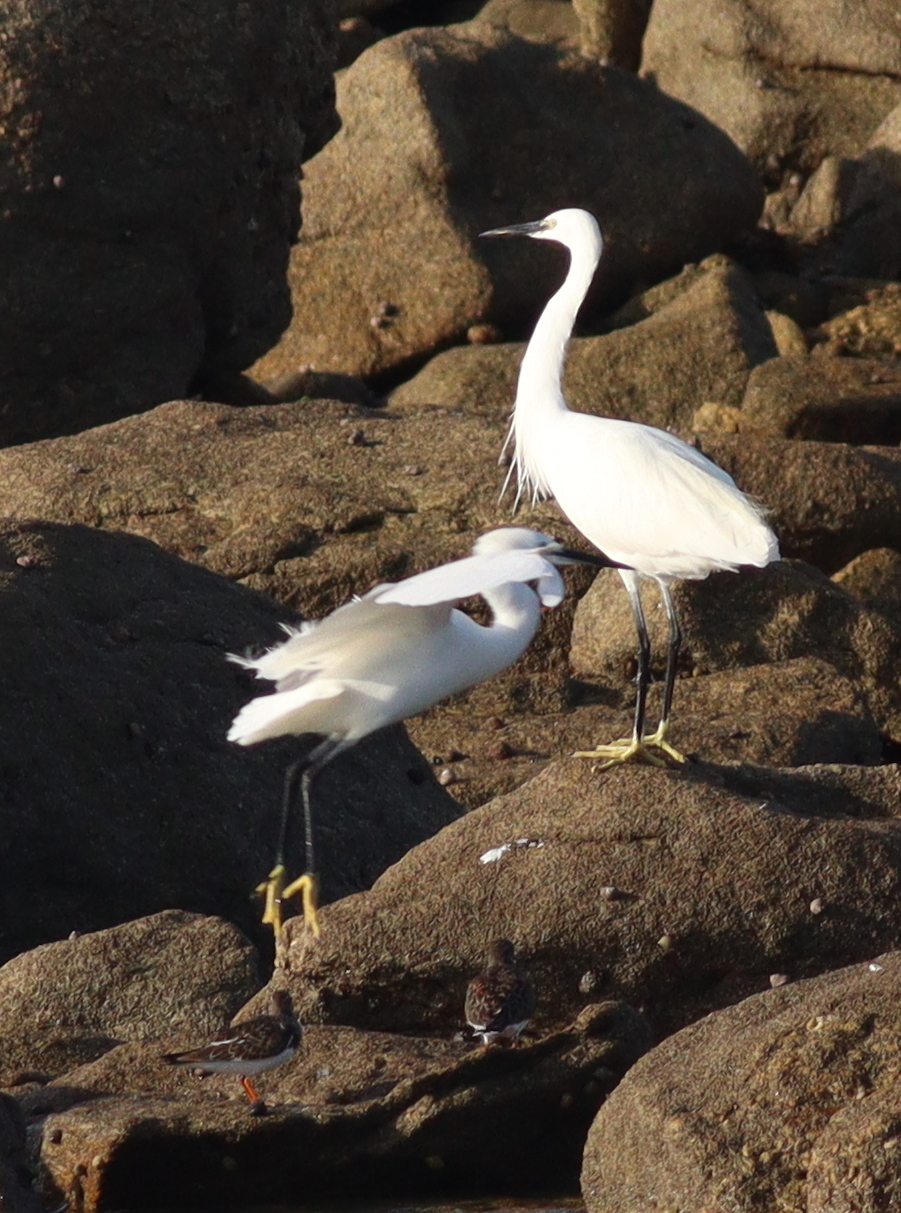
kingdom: Animalia
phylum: Chordata
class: Aves
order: Pelecaniformes
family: Ardeidae
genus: Egretta
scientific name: Egretta garzetta
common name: Little egret
